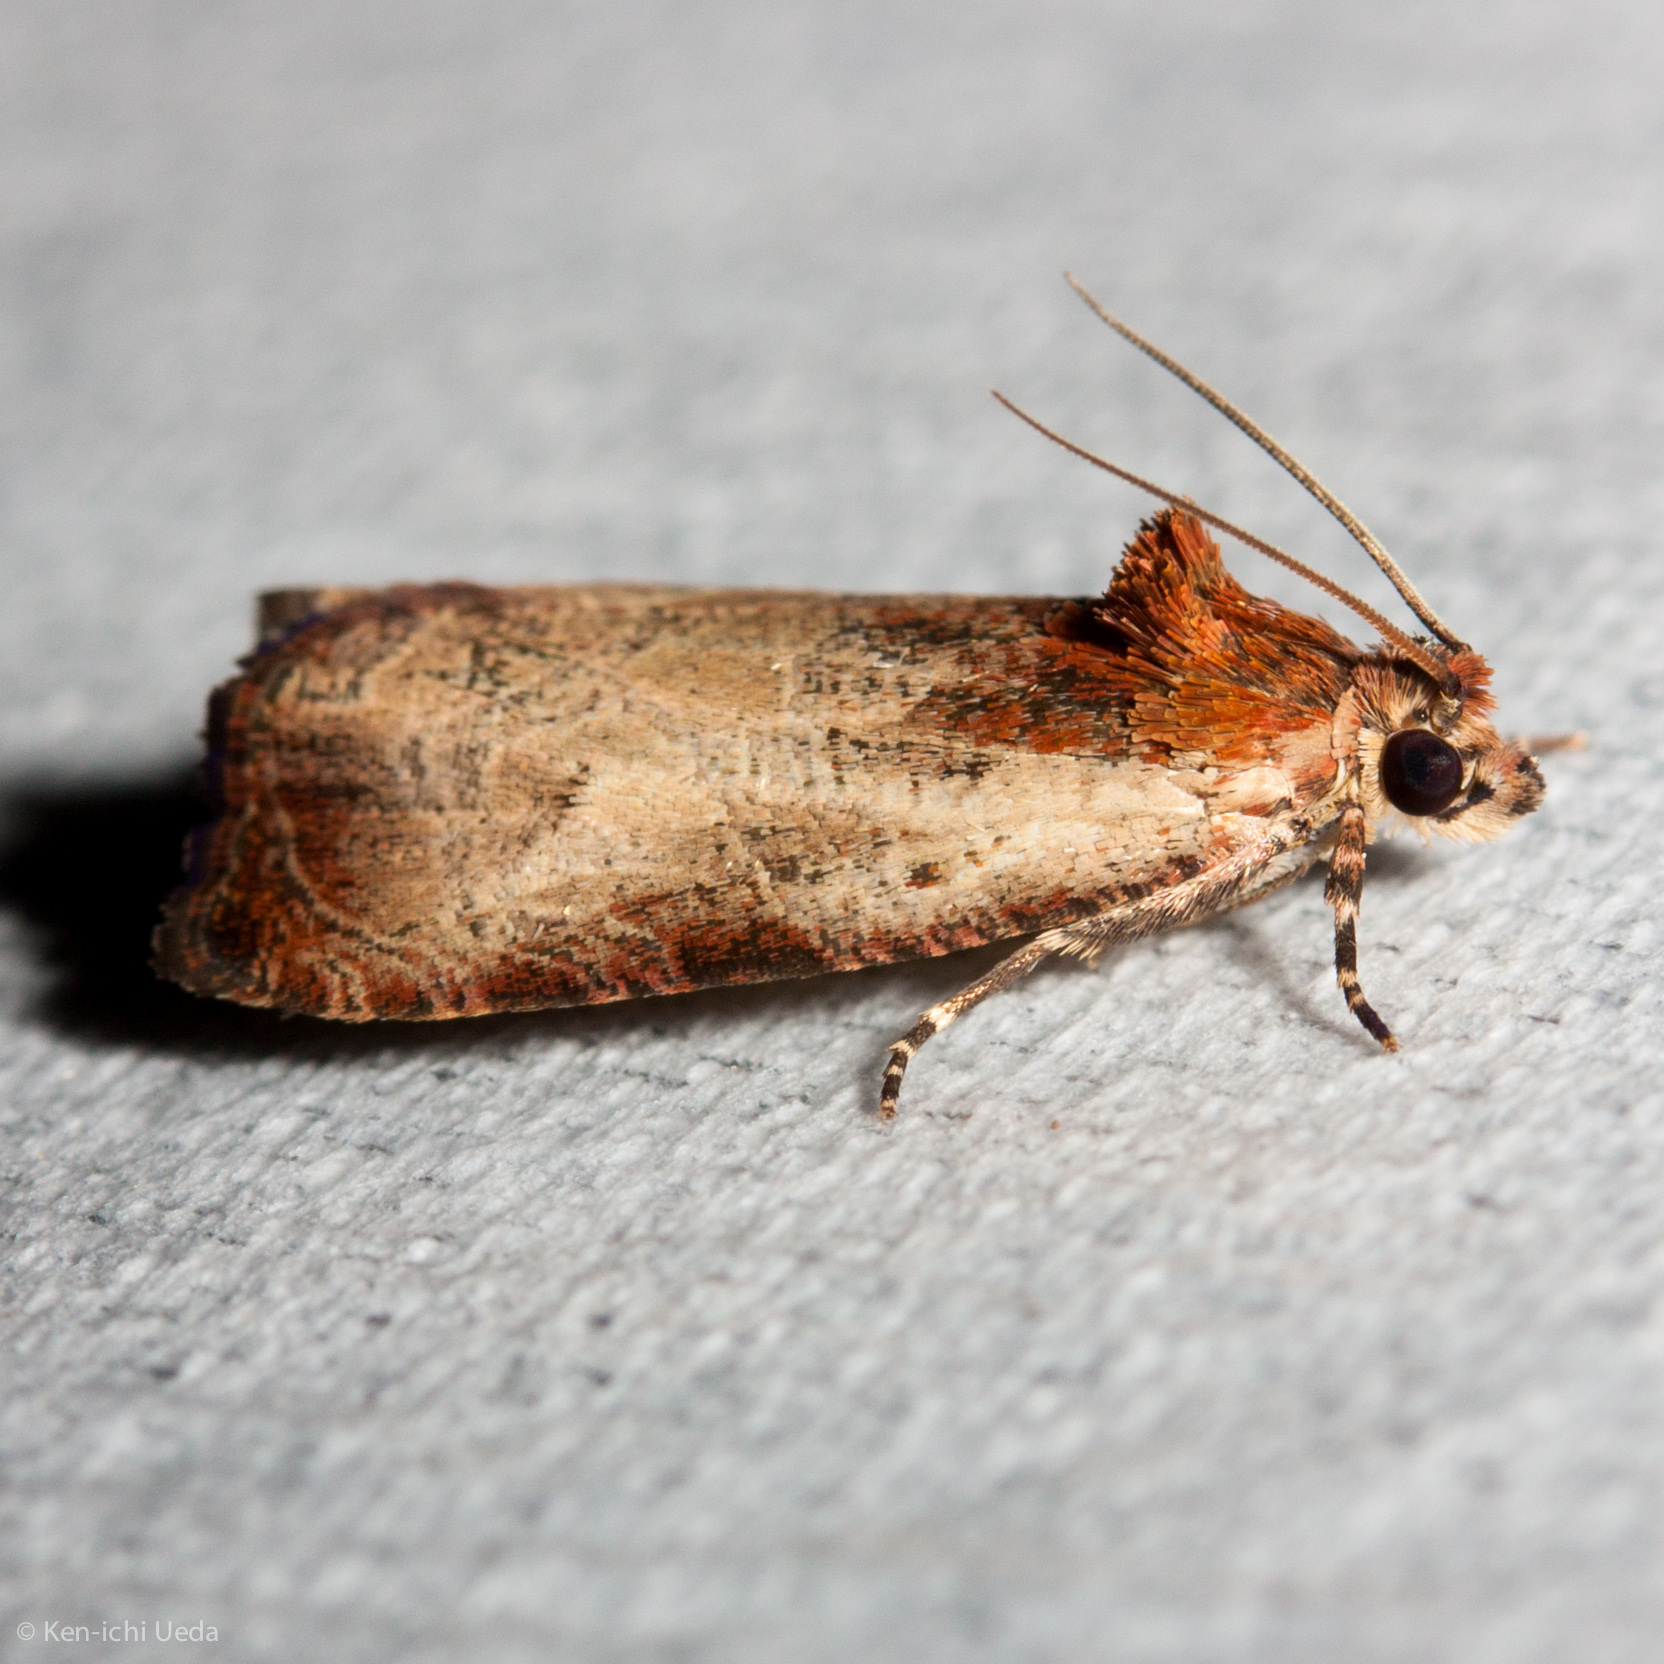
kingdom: Animalia
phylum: Arthropoda
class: Insecta
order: Lepidoptera
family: Tortricidae
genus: Olethreutes
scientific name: Olethreutes inornatana
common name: Inornate olethreutes moth
